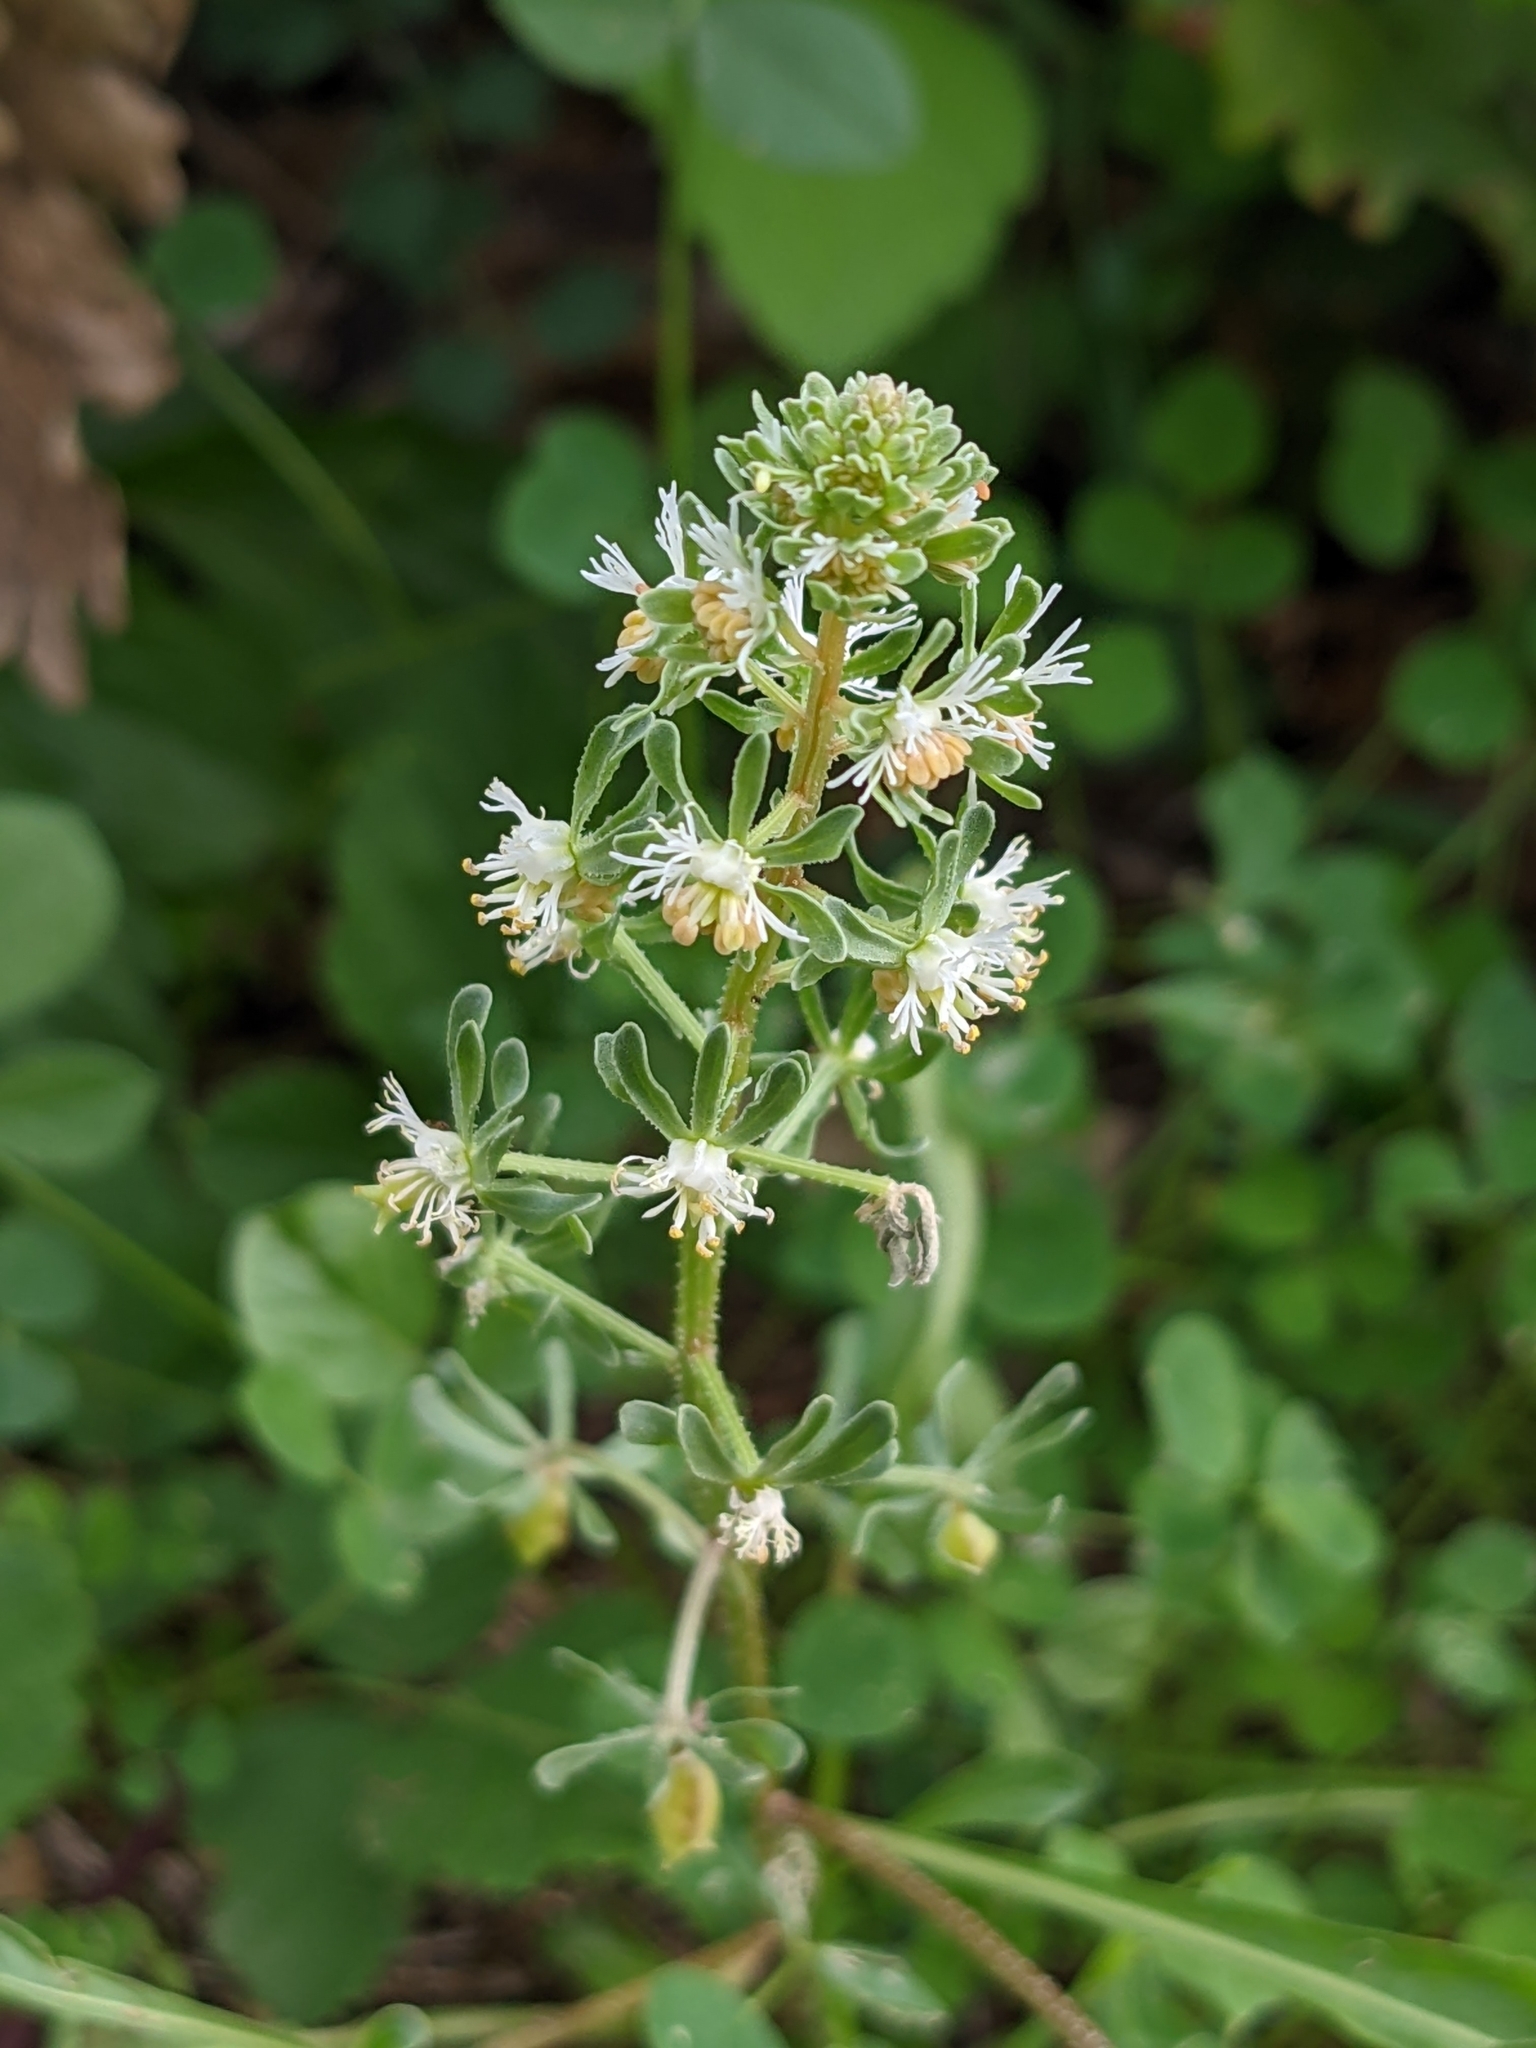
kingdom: Plantae
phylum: Tracheophyta
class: Magnoliopsida
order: Brassicales
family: Resedaceae
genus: Reseda
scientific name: Reseda phyteuma
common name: Corn mignonette
